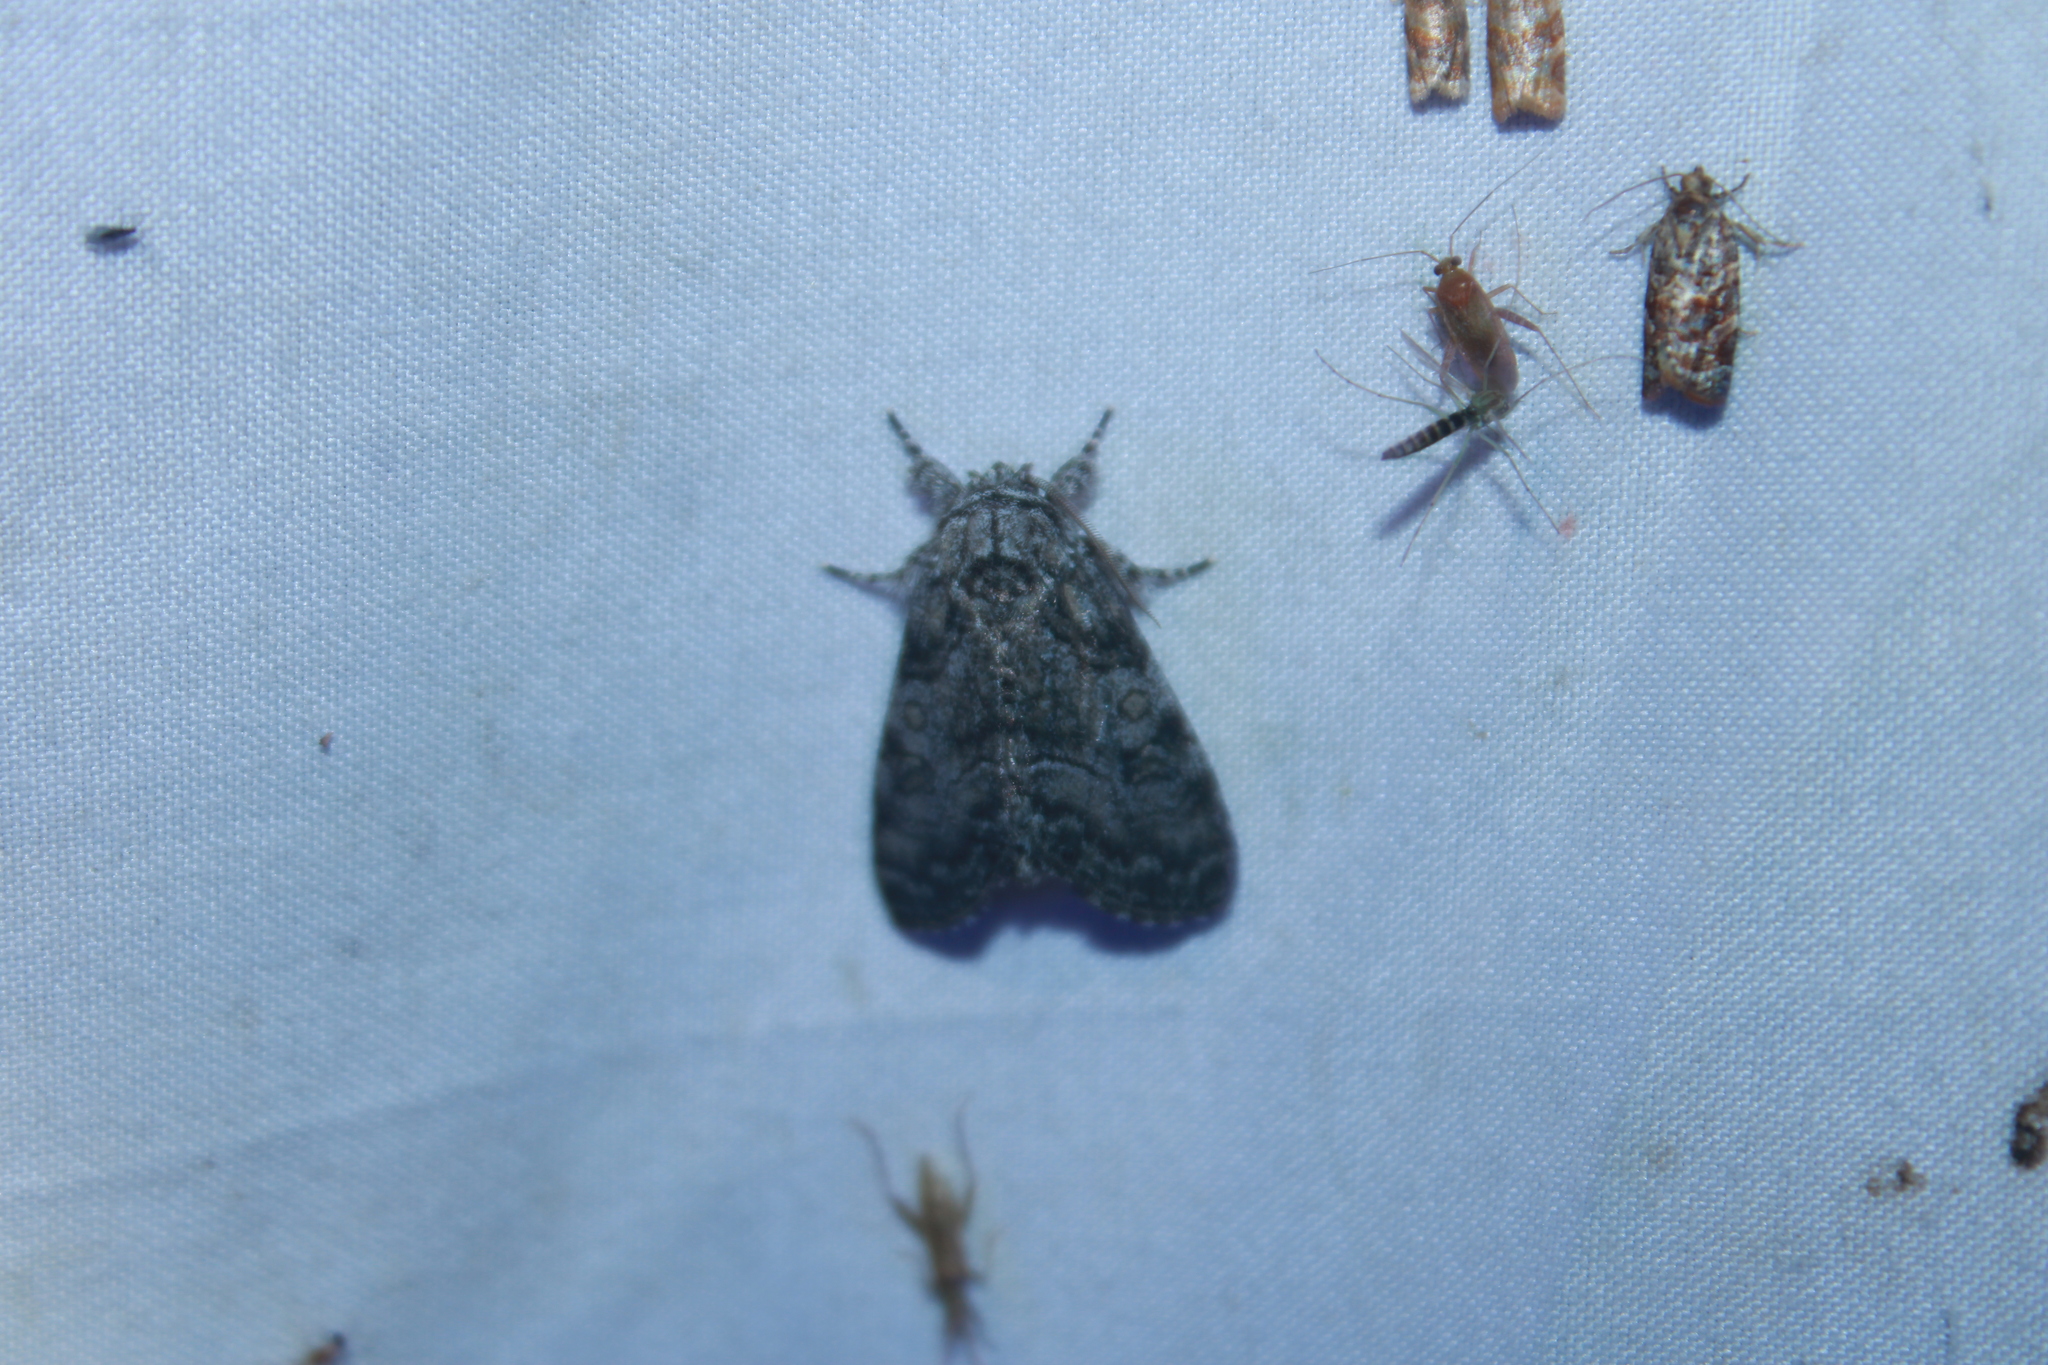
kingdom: Animalia
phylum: Arthropoda
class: Insecta
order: Lepidoptera
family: Noctuidae
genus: Raphia
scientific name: Raphia frater
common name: Brother
